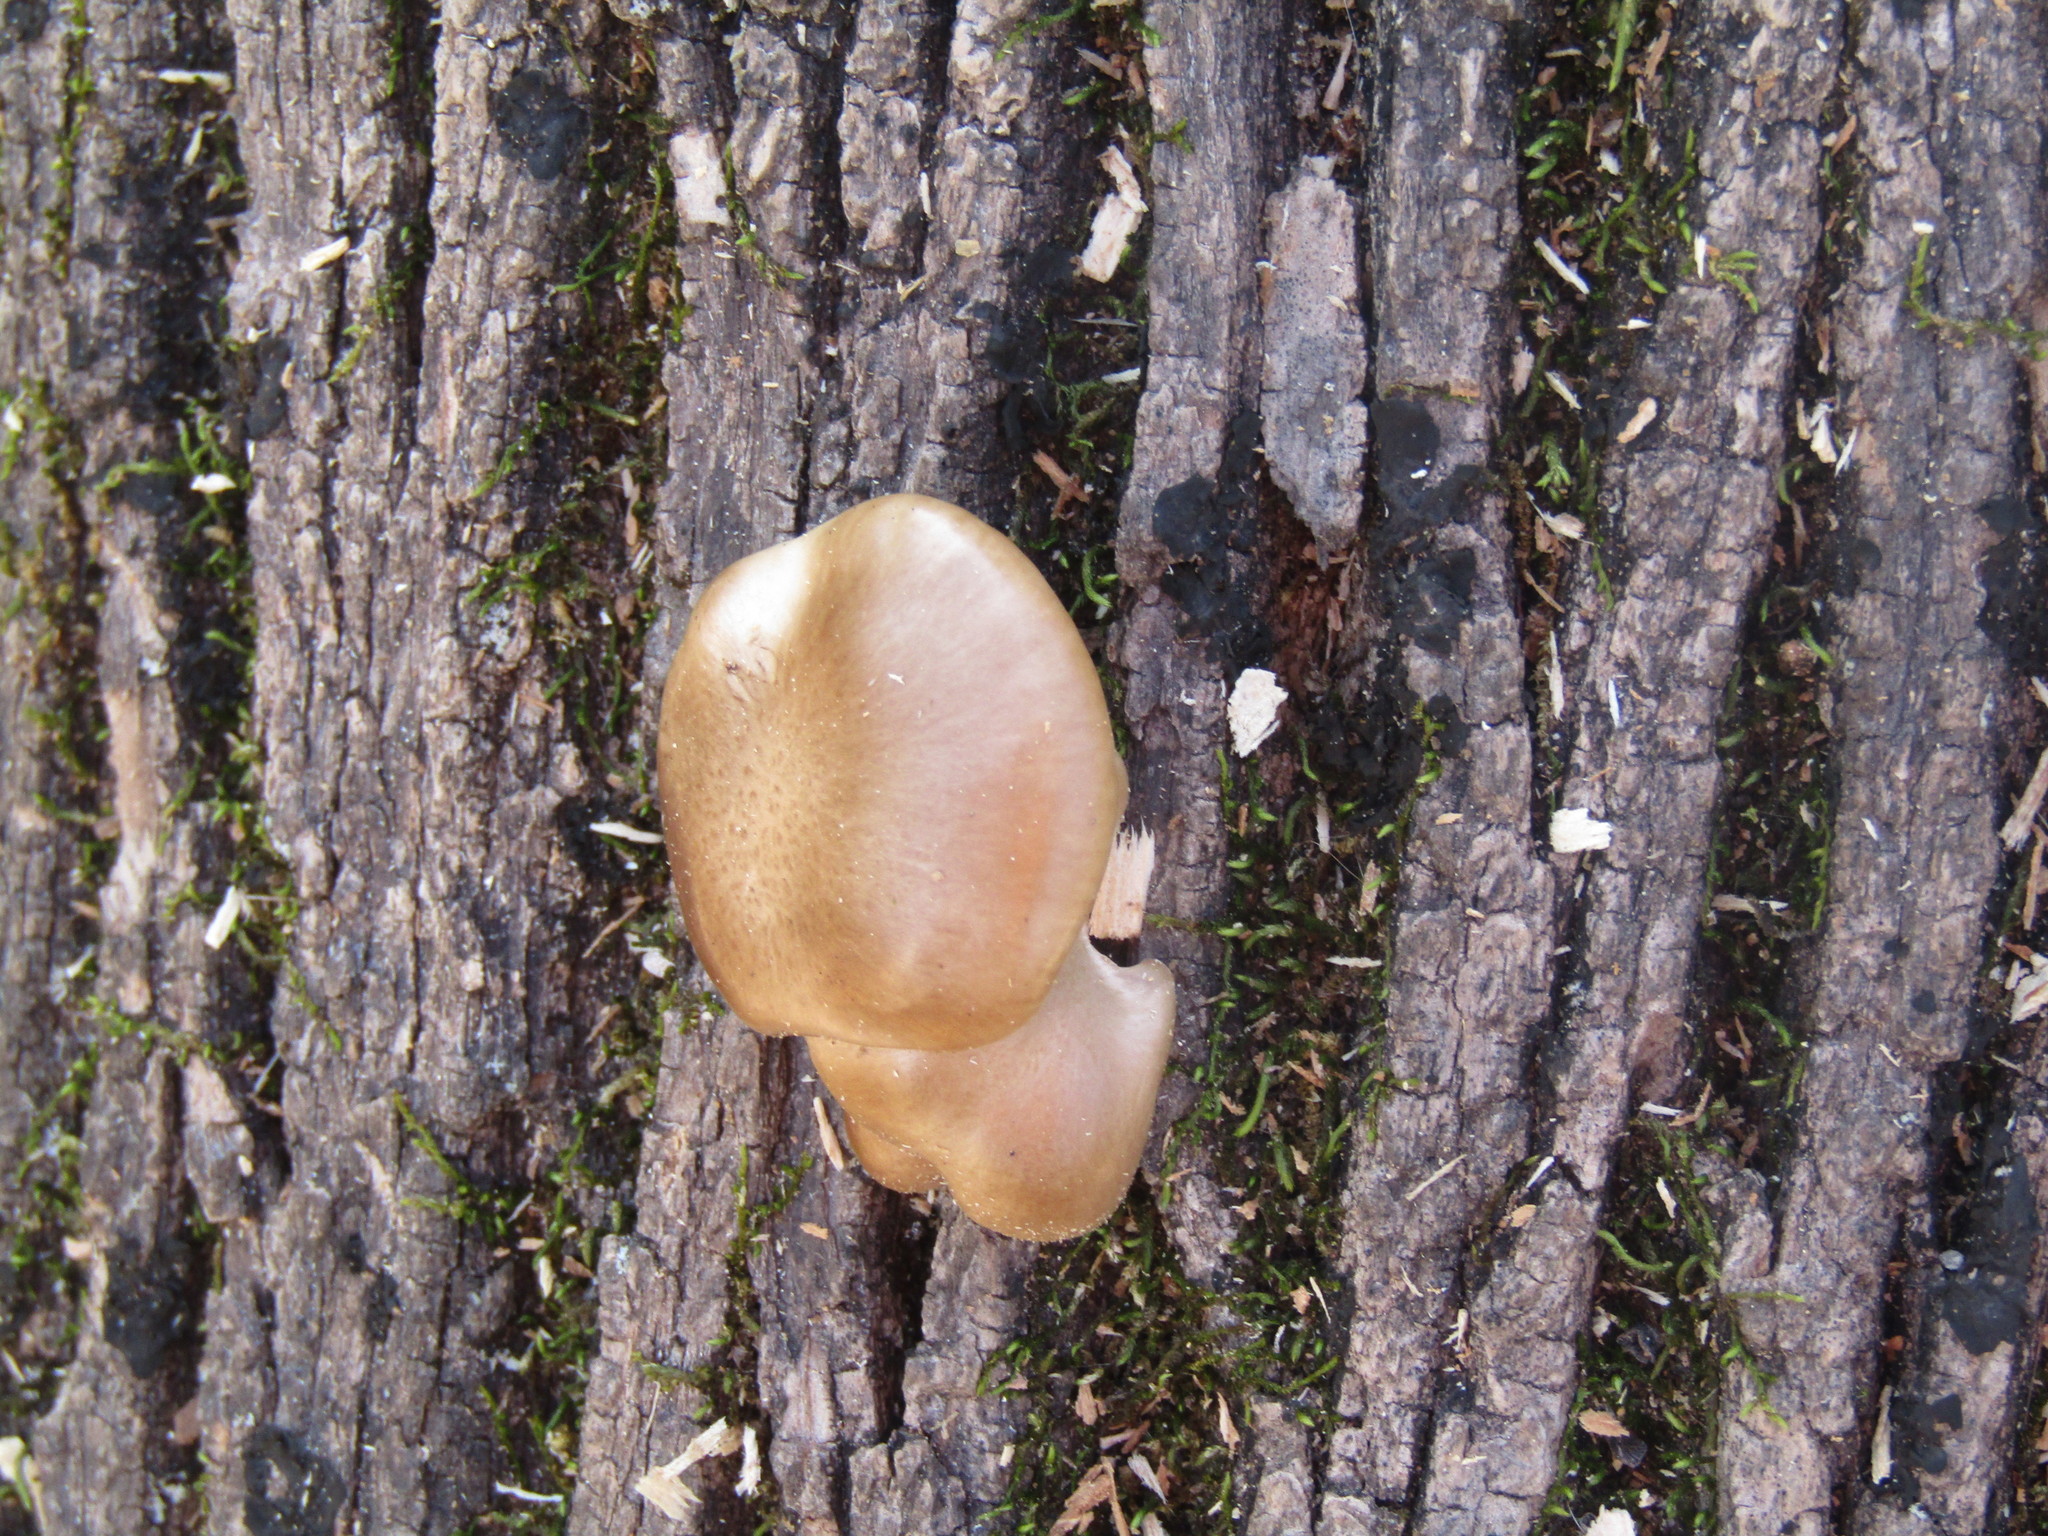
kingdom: Fungi
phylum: Basidiomycota
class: Agaricomycetes
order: Agaricales
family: Pleurotaceae
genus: Pleurotus
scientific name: Pleurotus ostreatus
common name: Oyster mushroom
